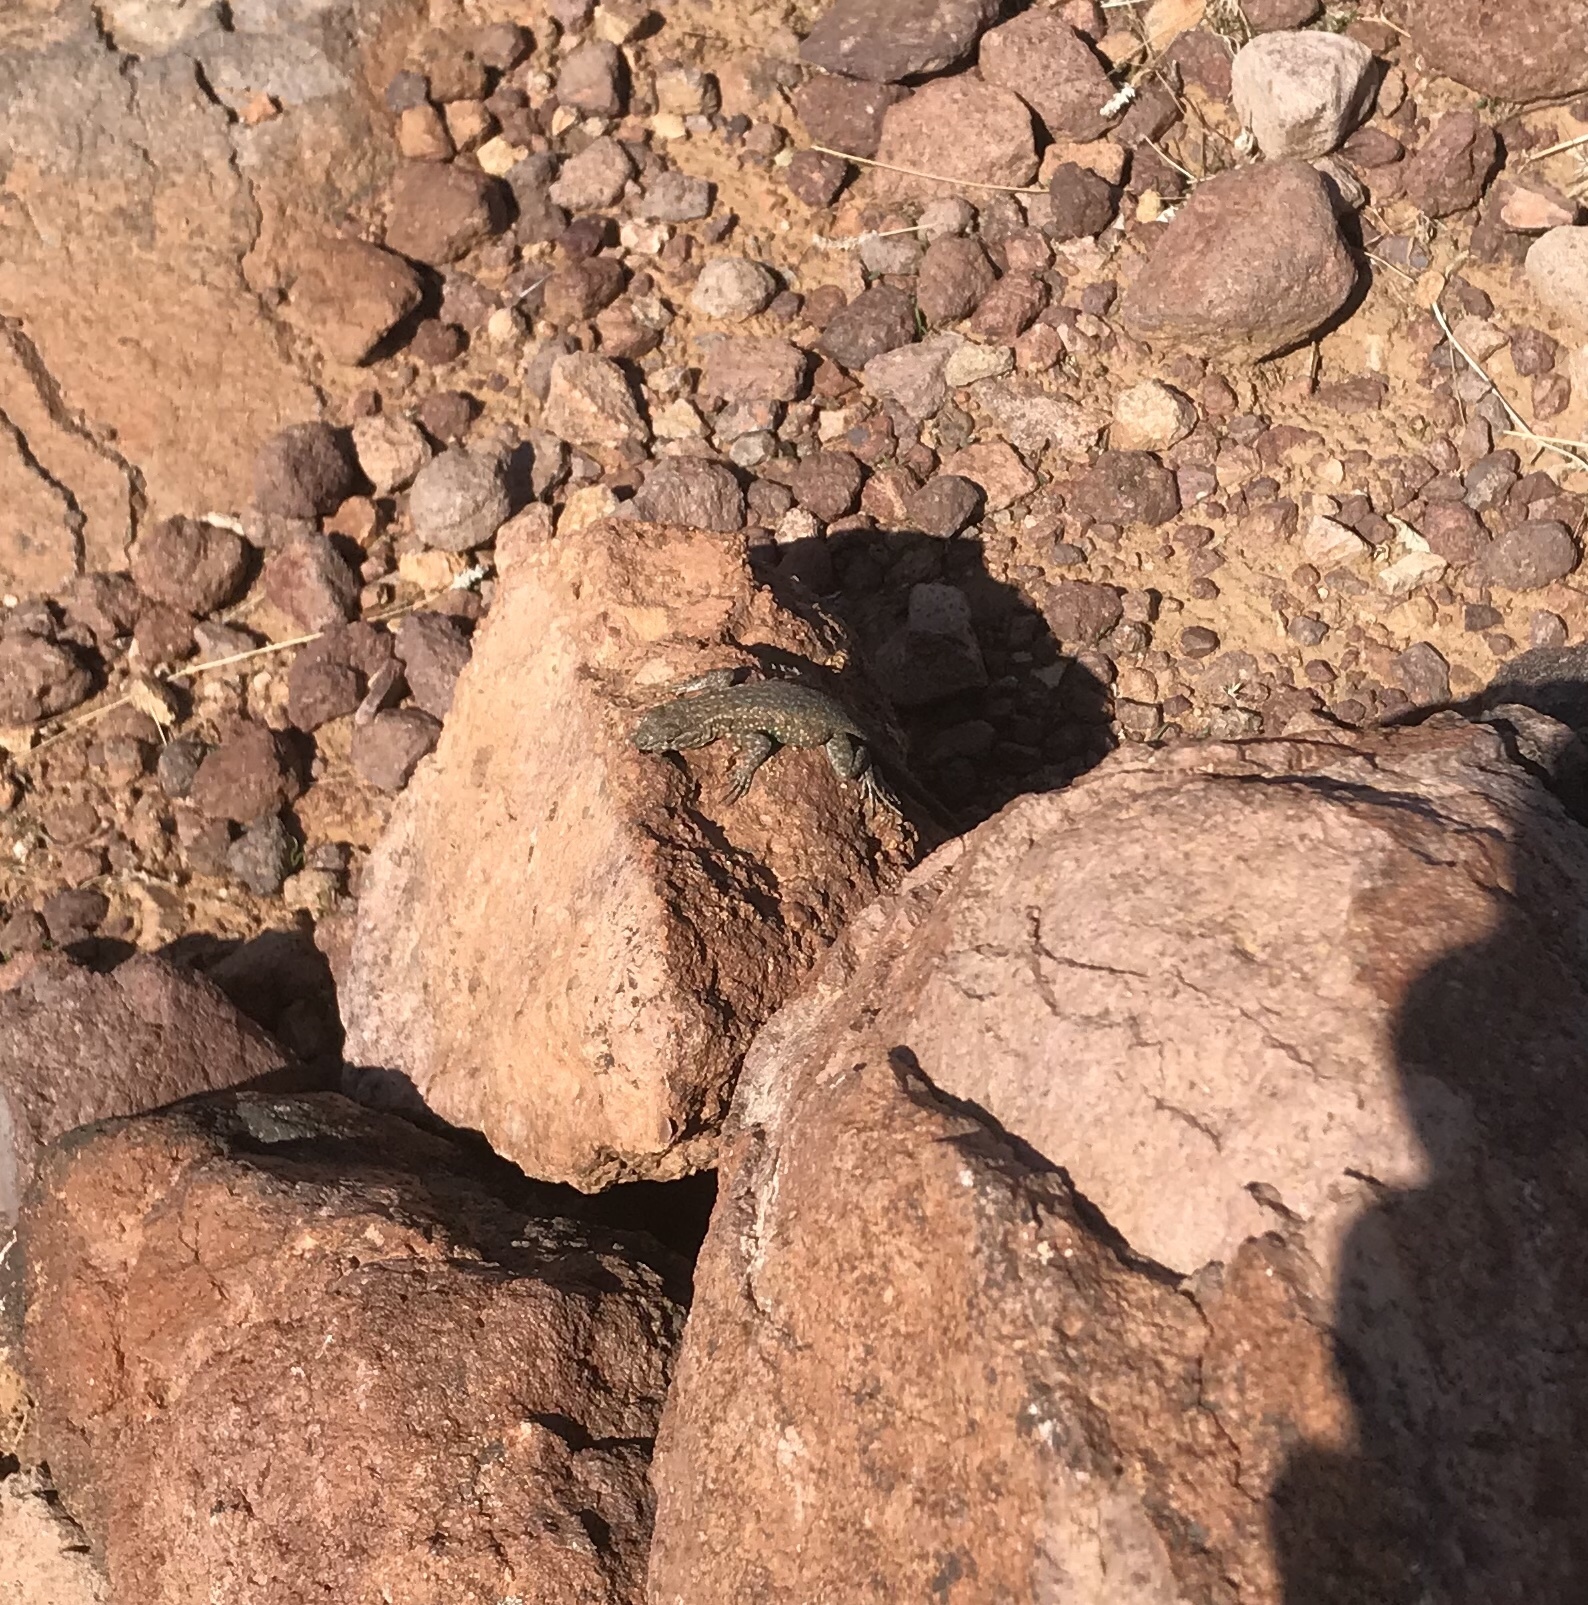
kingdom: Animalia
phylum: Chordata
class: Squamata
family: Phrynosomatidae
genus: Uta
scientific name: Uta stansburiana
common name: Side-blotched lizard
